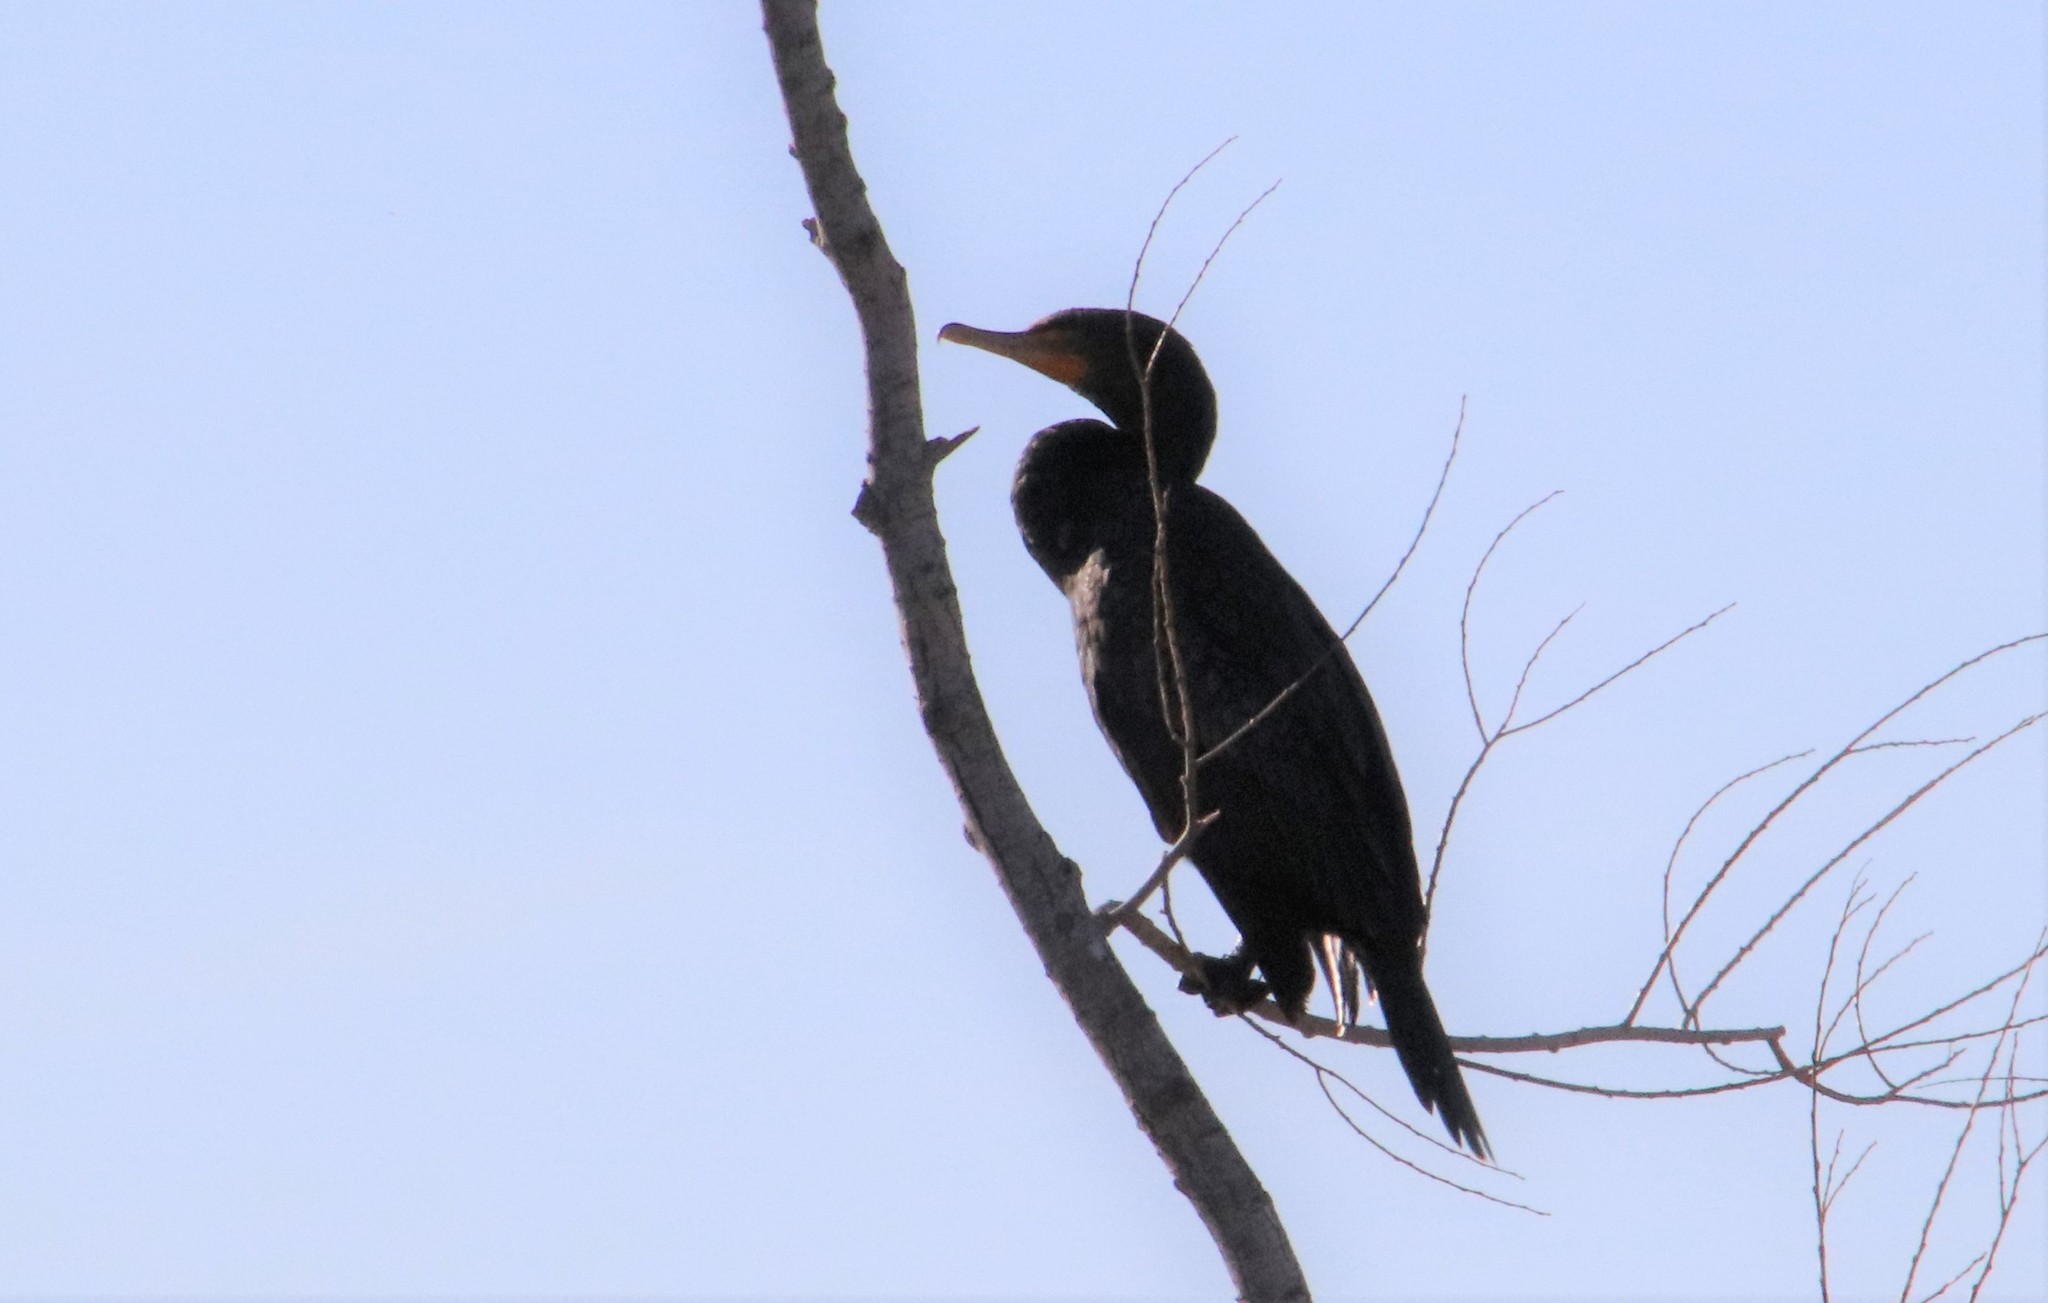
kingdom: Animalia
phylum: Chordata
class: Aves
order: Suliformes
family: Phalacrocoracidae
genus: Phalacrocorax
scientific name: Phalacrocorax auritus
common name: Double-crested cormorant
